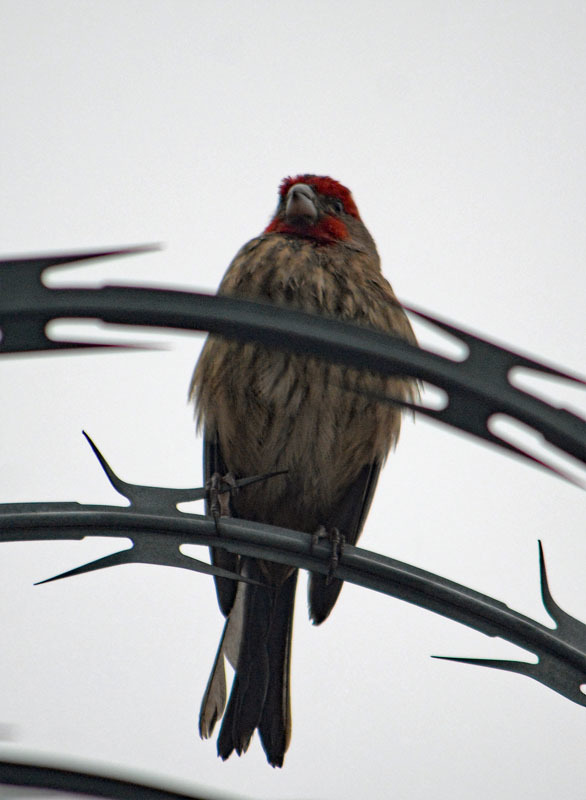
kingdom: Animalia
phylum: Chordata
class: Aves
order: Passeriformes
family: Fringillidae
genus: Haemorhous
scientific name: Haemorhous mexicanus
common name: House finch
